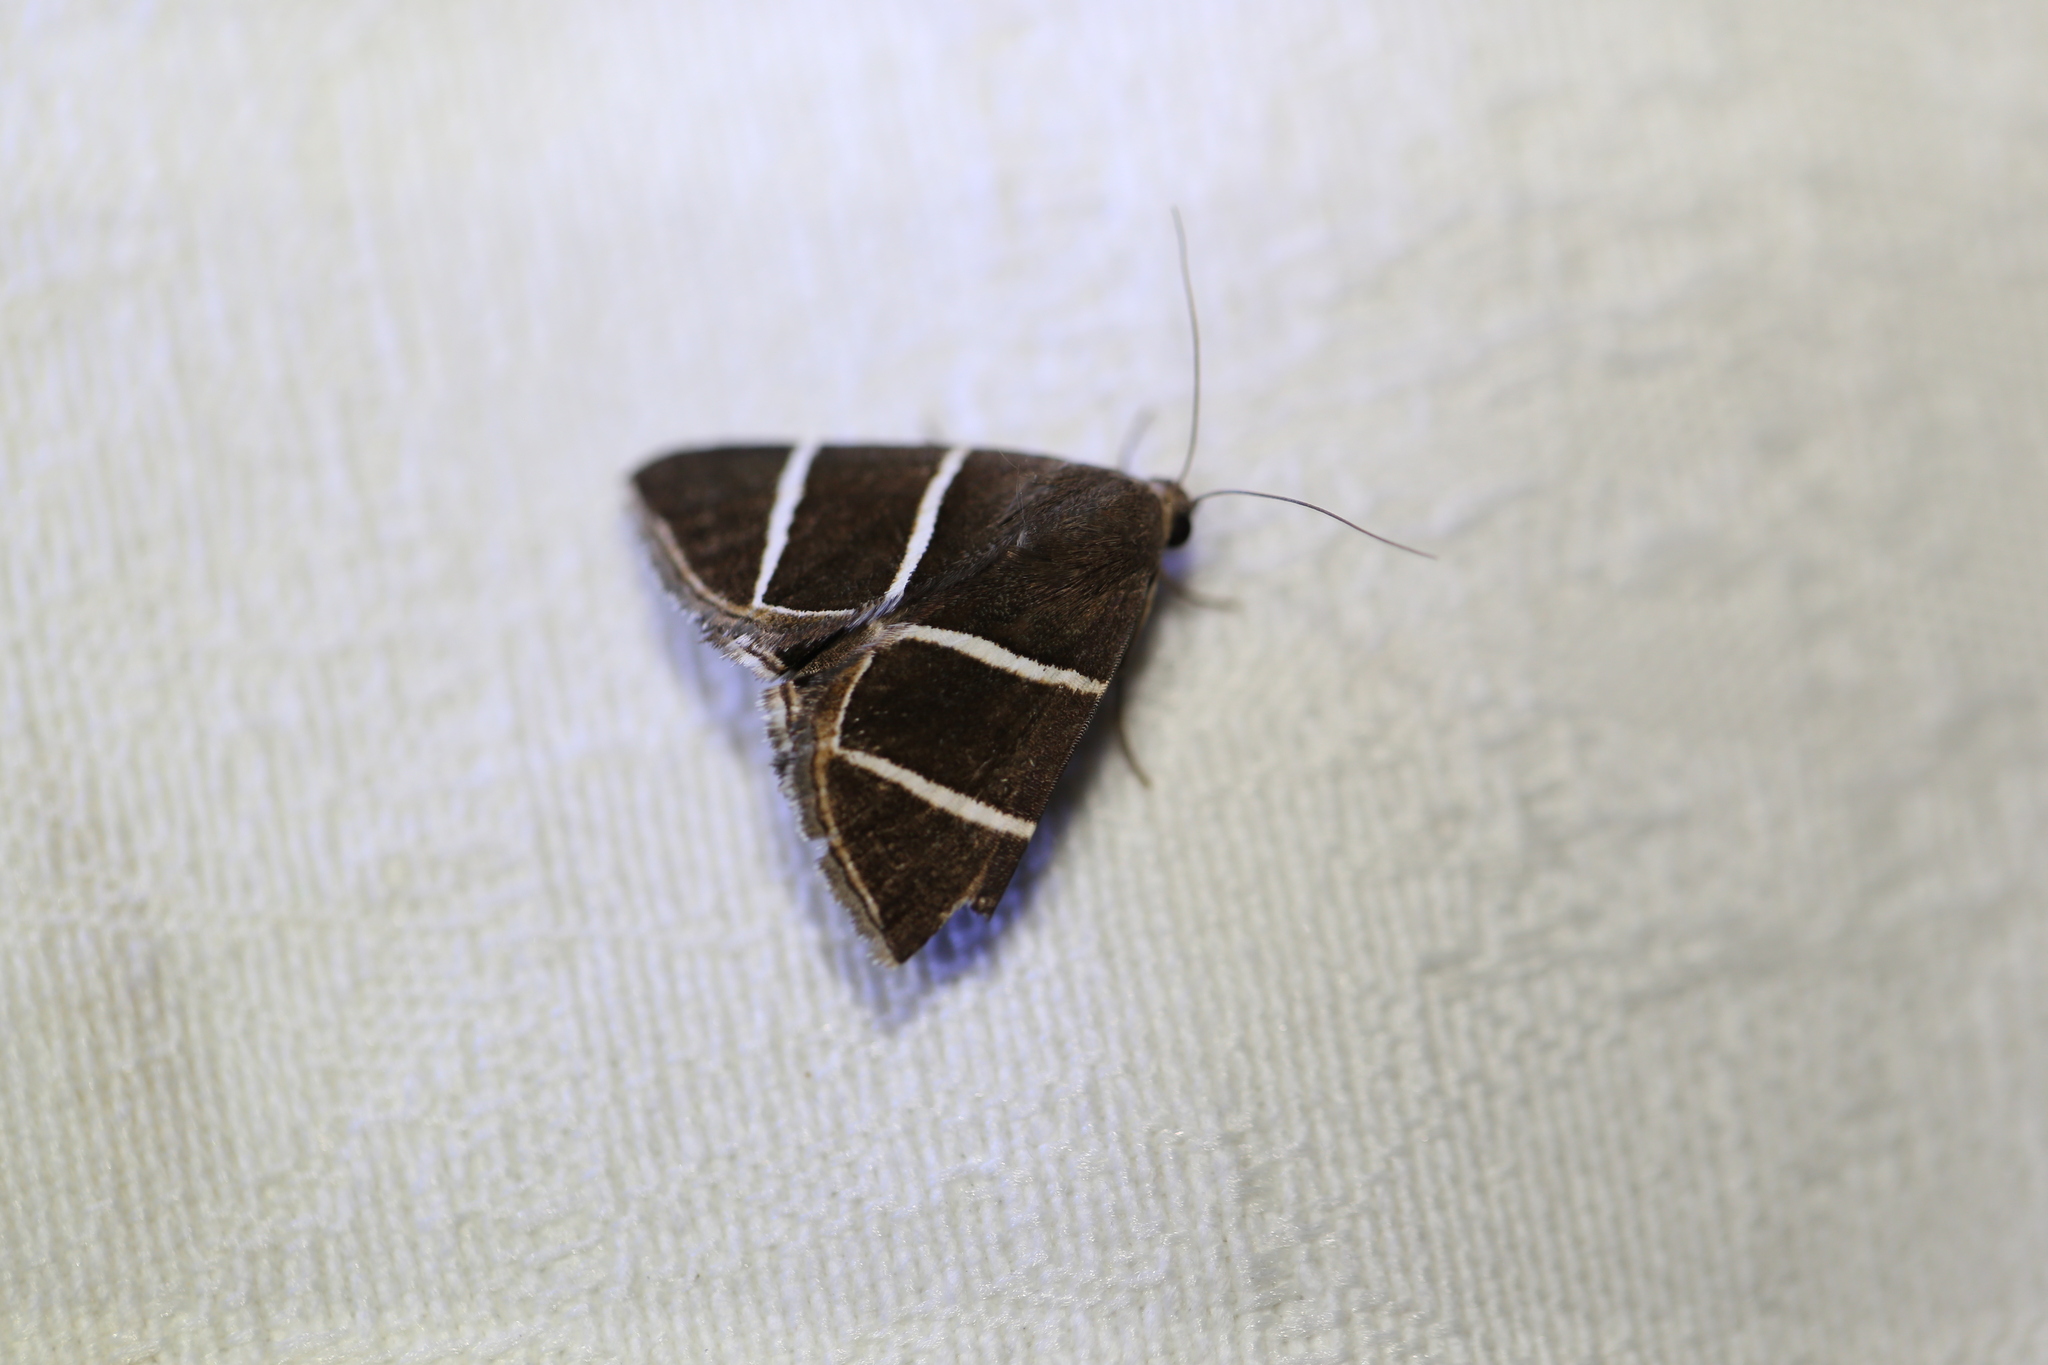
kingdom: Animalia
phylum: Arthropoda
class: Insecta
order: Lepidoptera
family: Erebidae
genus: Grammodes
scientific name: Grammodes justa
